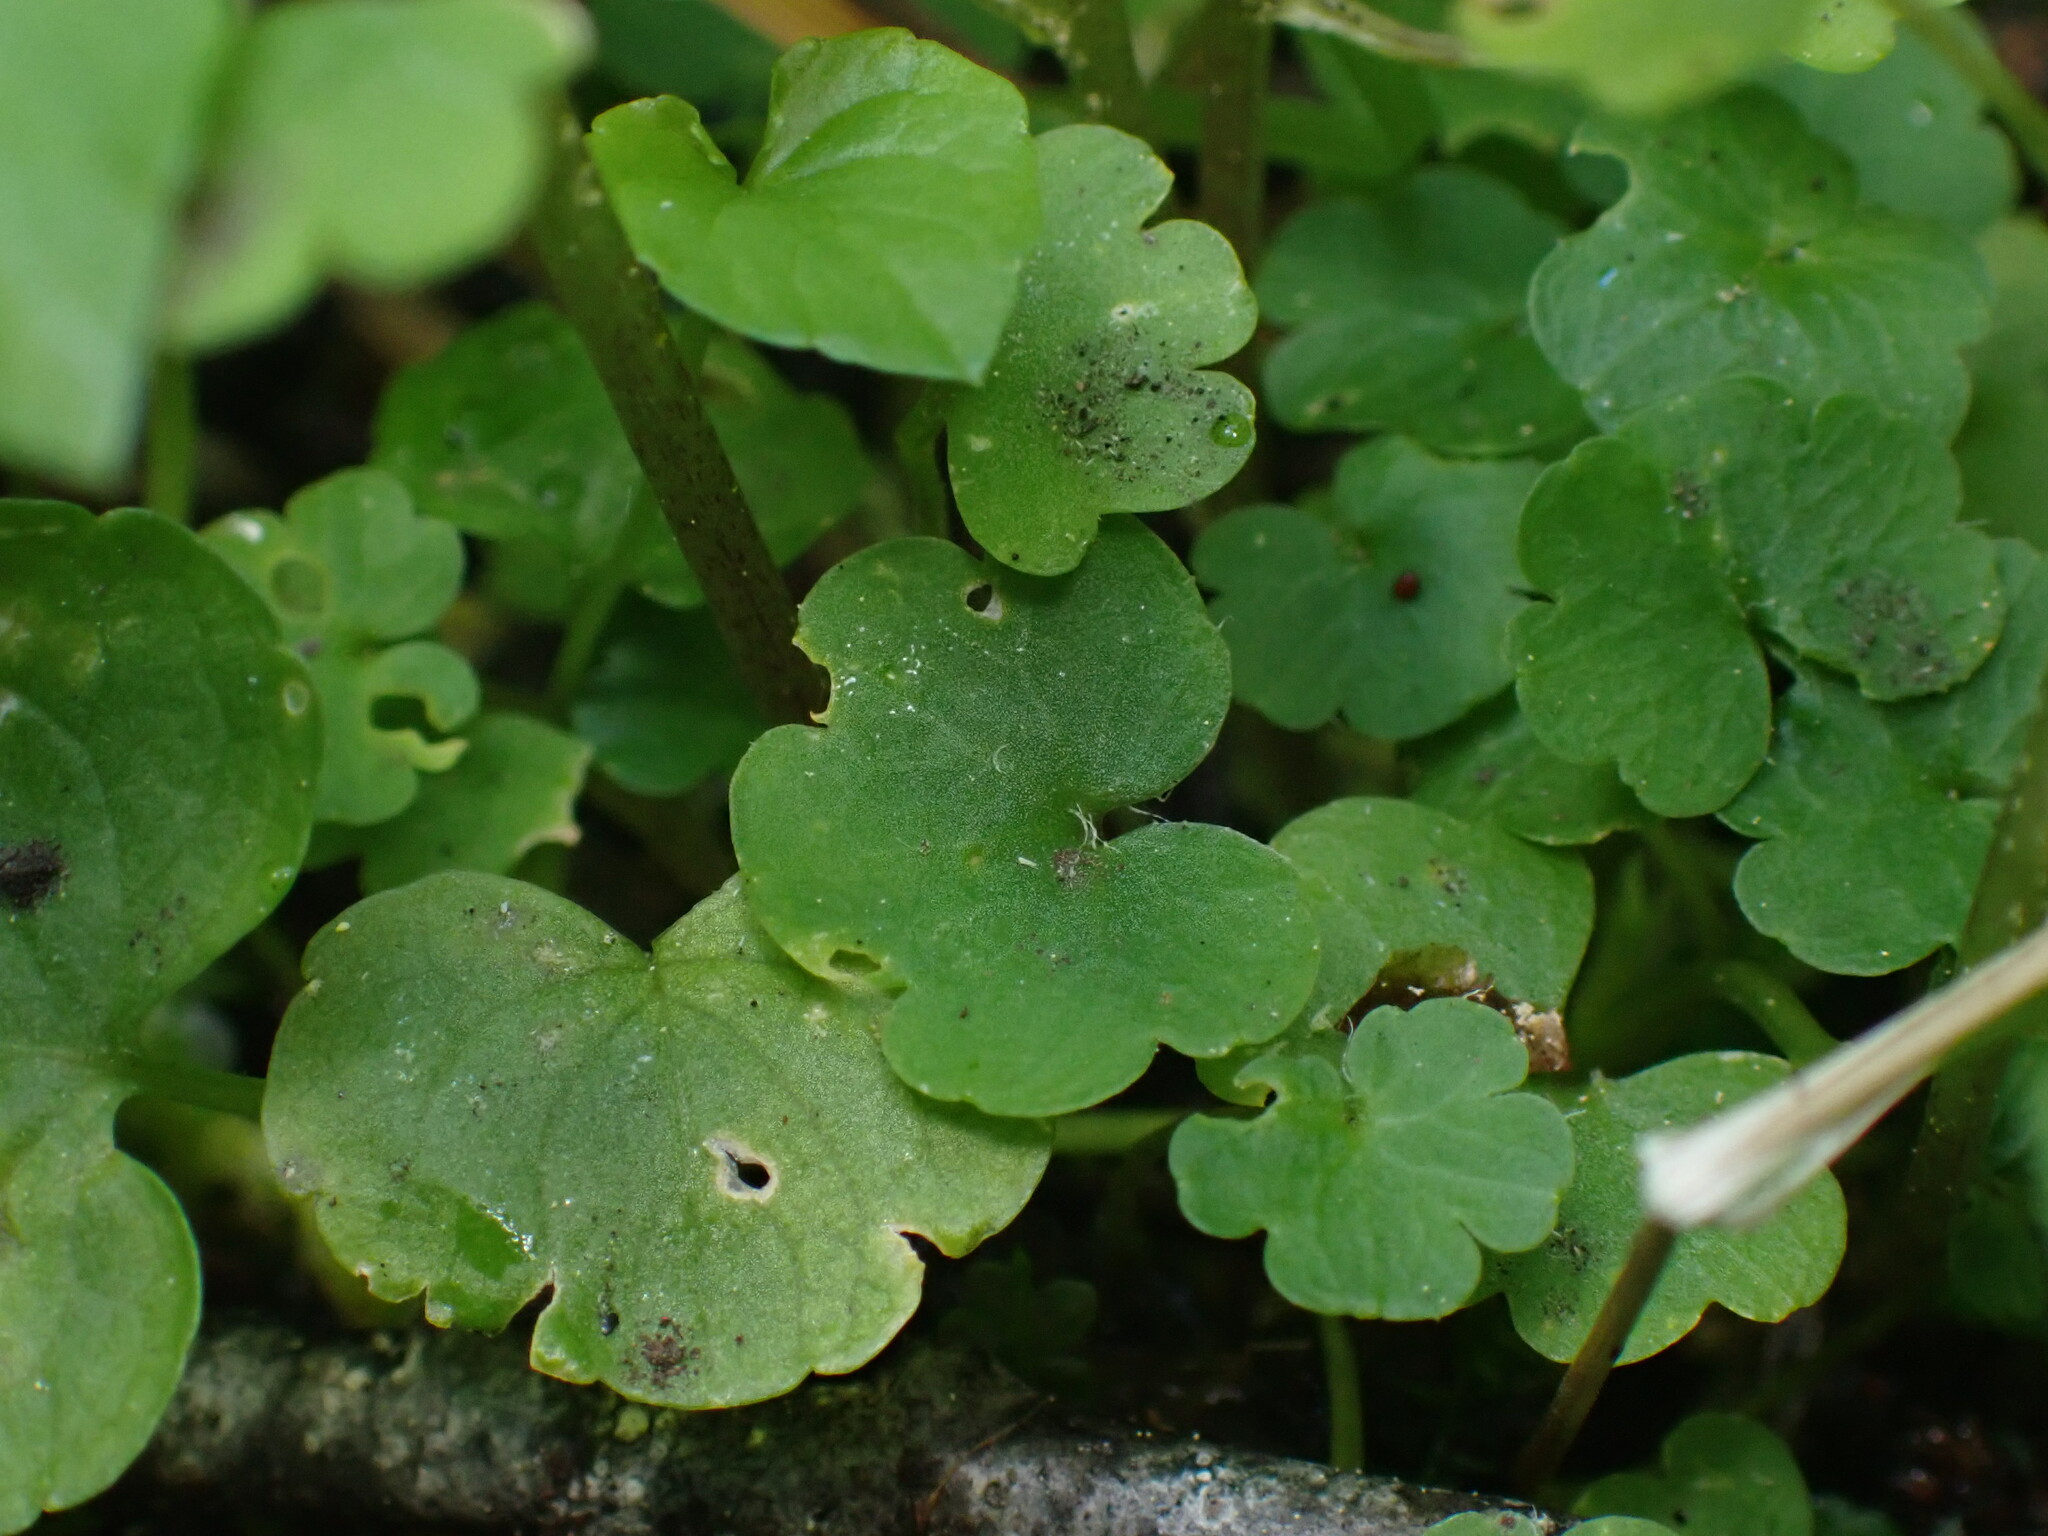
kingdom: Plantae
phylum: Tracheophyta
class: Magnoliopsida
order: Saxifragales
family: Saxifragaceae
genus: Chrysosplenium
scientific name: Chrysosplenium tetrandrum
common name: Green saxifrage
